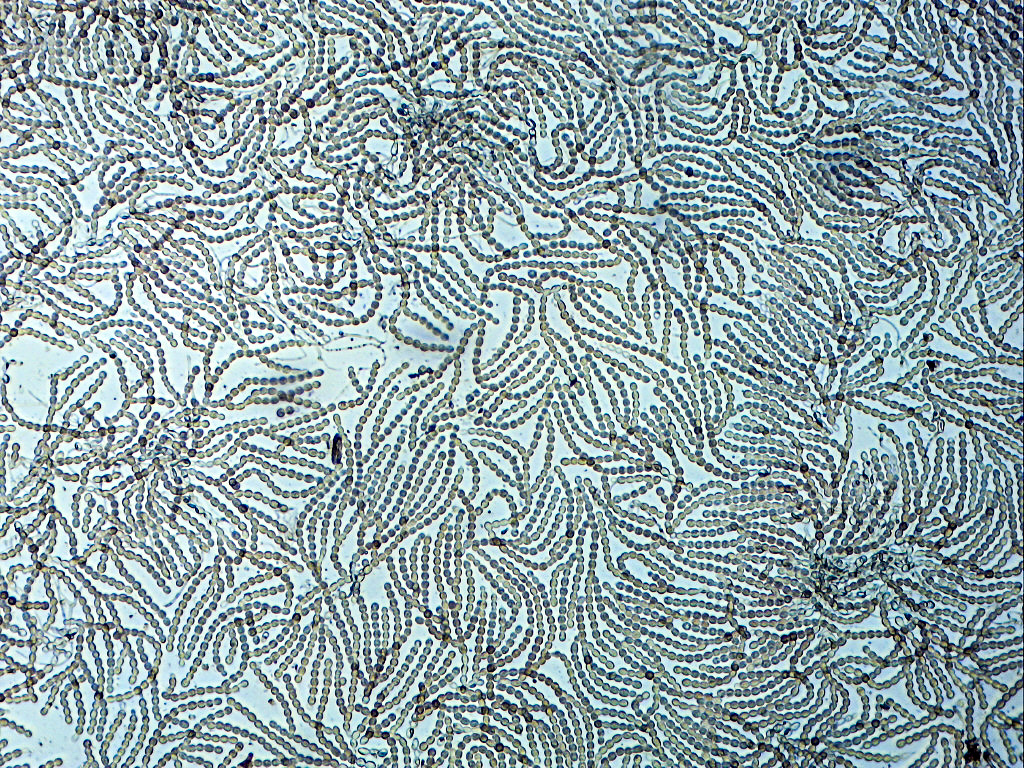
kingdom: Fungi
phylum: Basidiomycota
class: Agaricomycetes
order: Cantharellales
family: Tulasnellaceae
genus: Tulasnella
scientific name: Tulasnella aurantiaca
